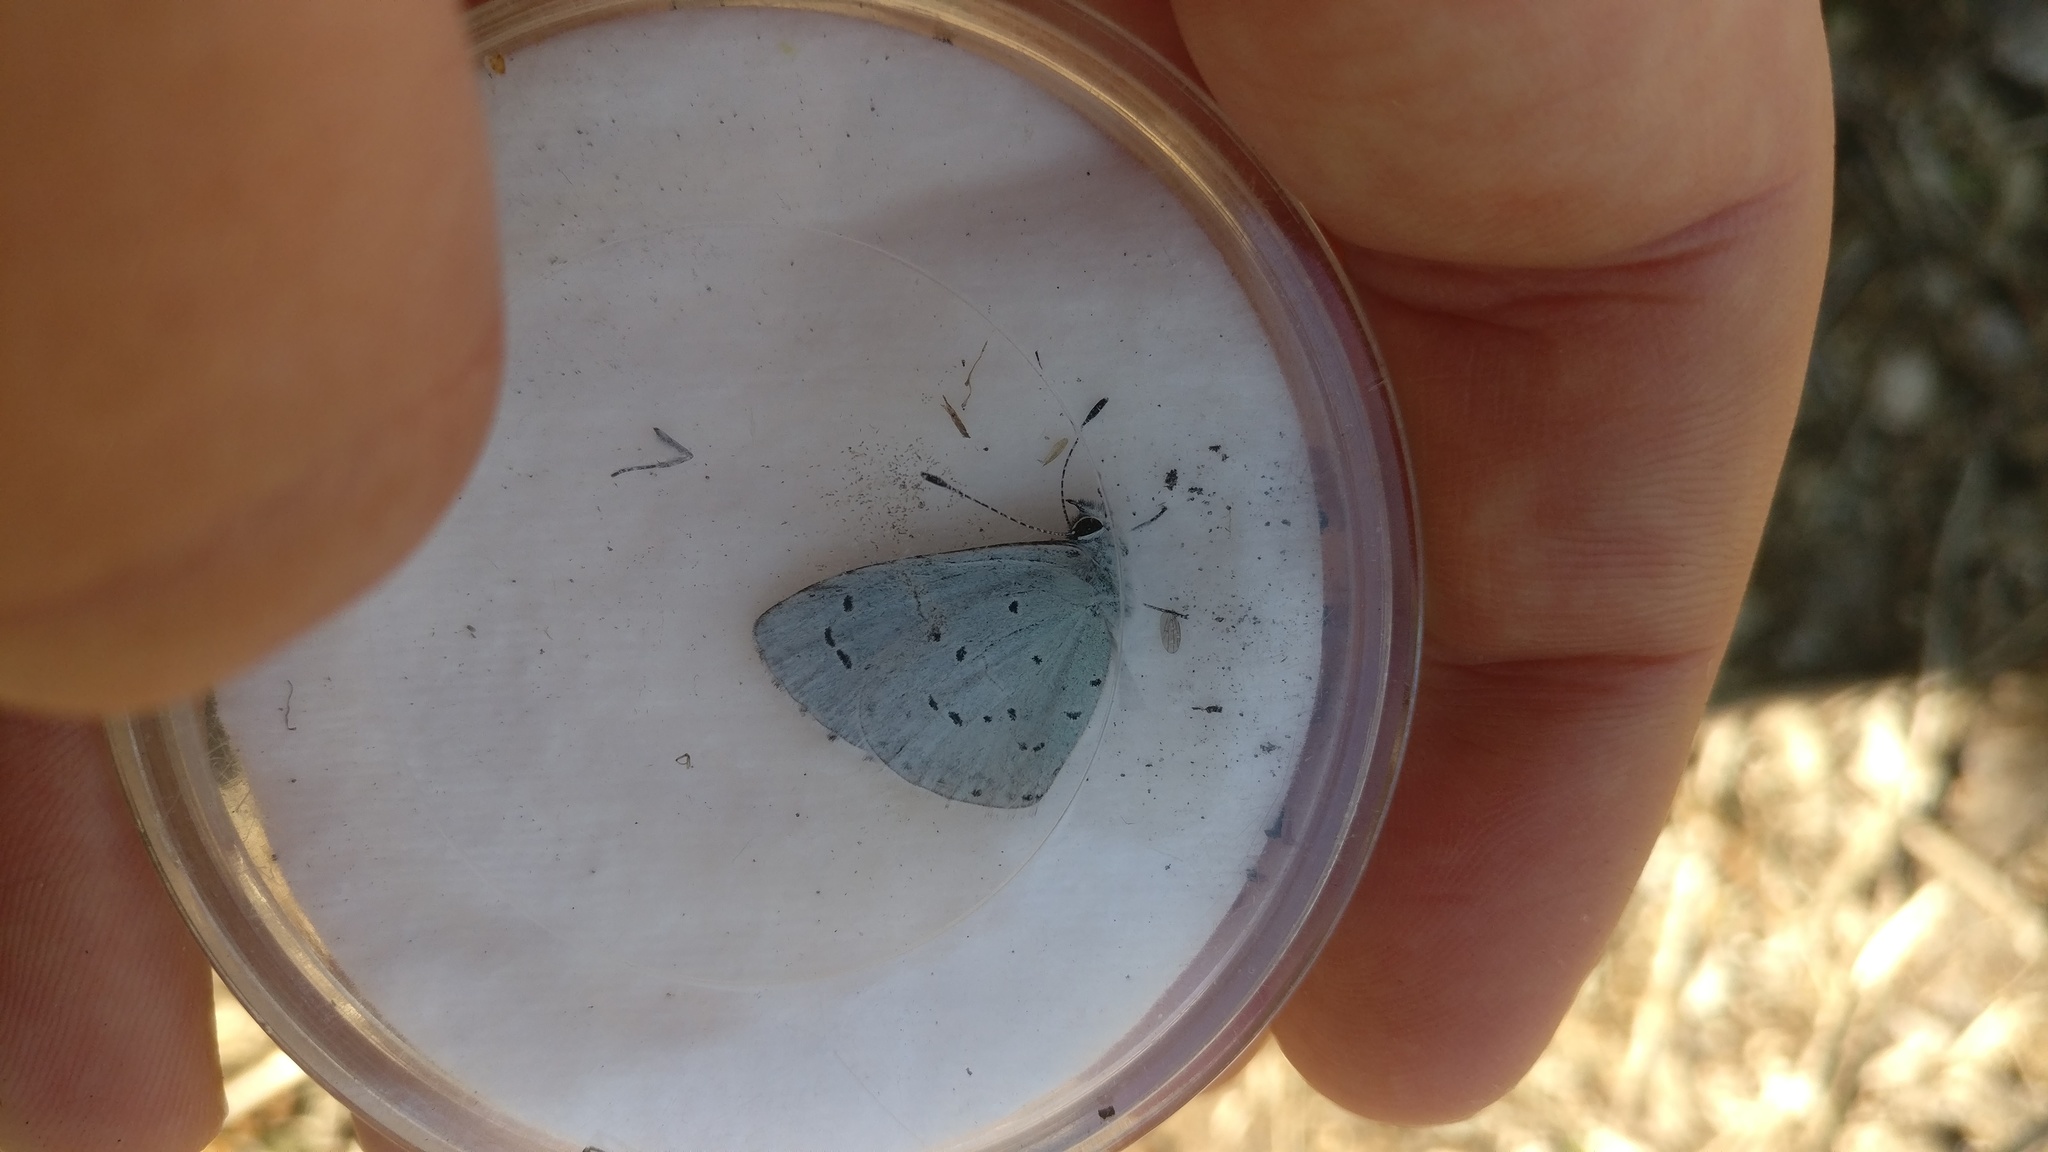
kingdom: Animalia
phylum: Arthropoda
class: Insecta
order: Lepidoptera
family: Lycaenidae
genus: Celastrina
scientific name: Celastrina argiolus
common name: Holly blue
